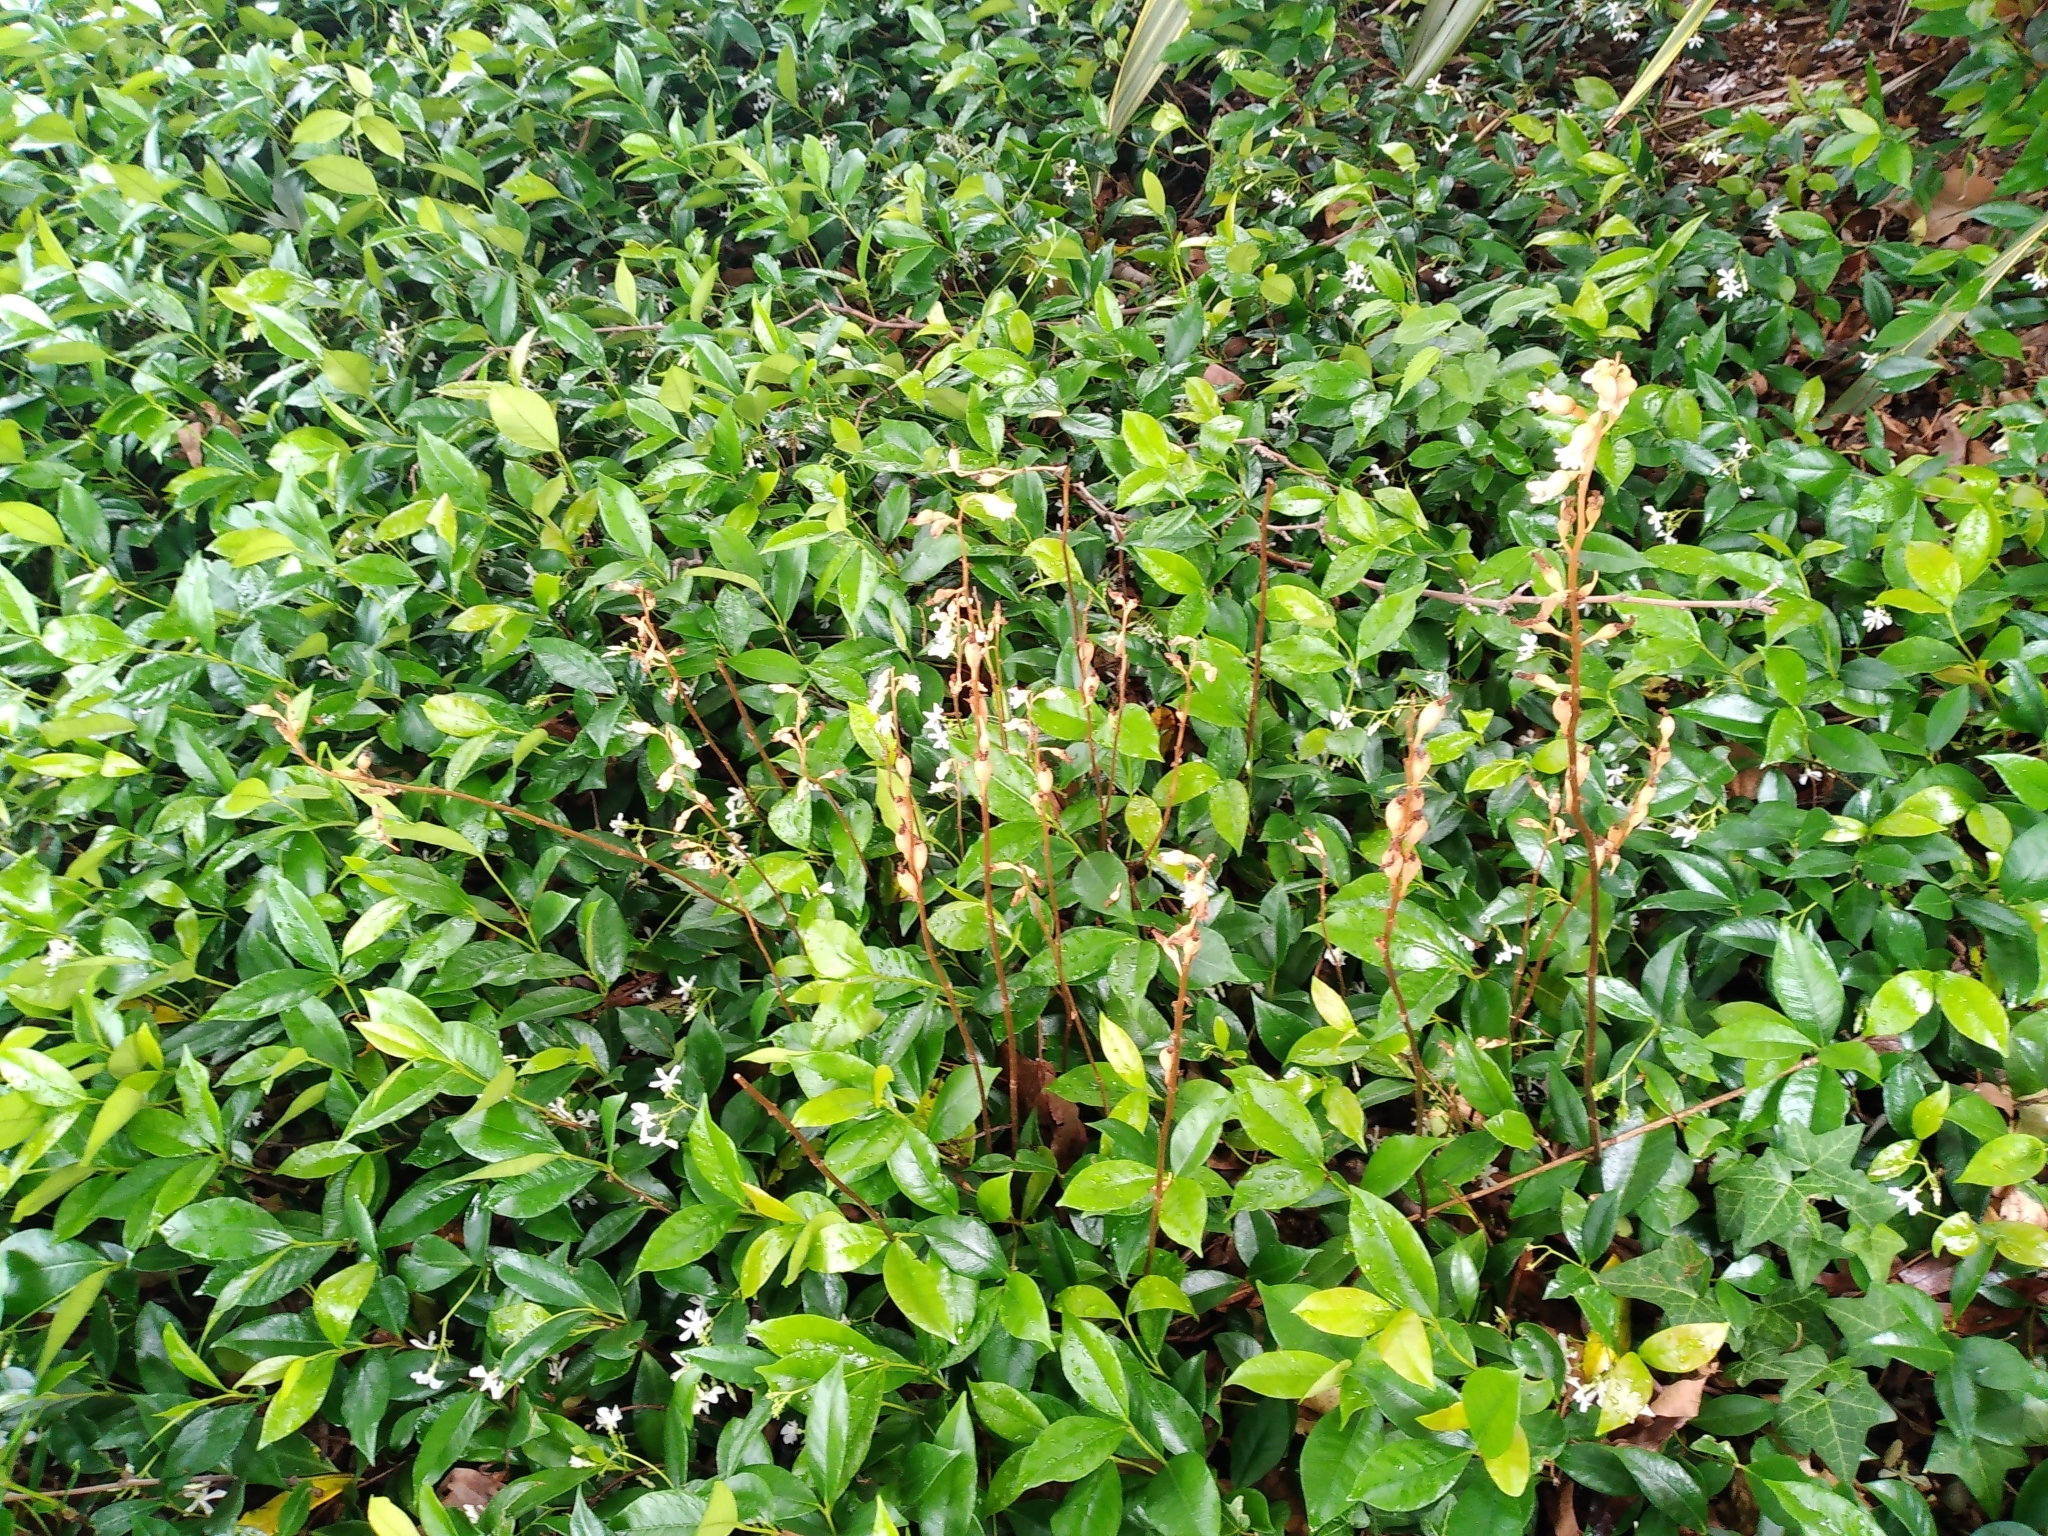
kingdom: Plantae
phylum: Tracheophyta
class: Liliopsida
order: Asparagales
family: Orchidaceae
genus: Gastrodia
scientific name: Gastrodia sesamoides
